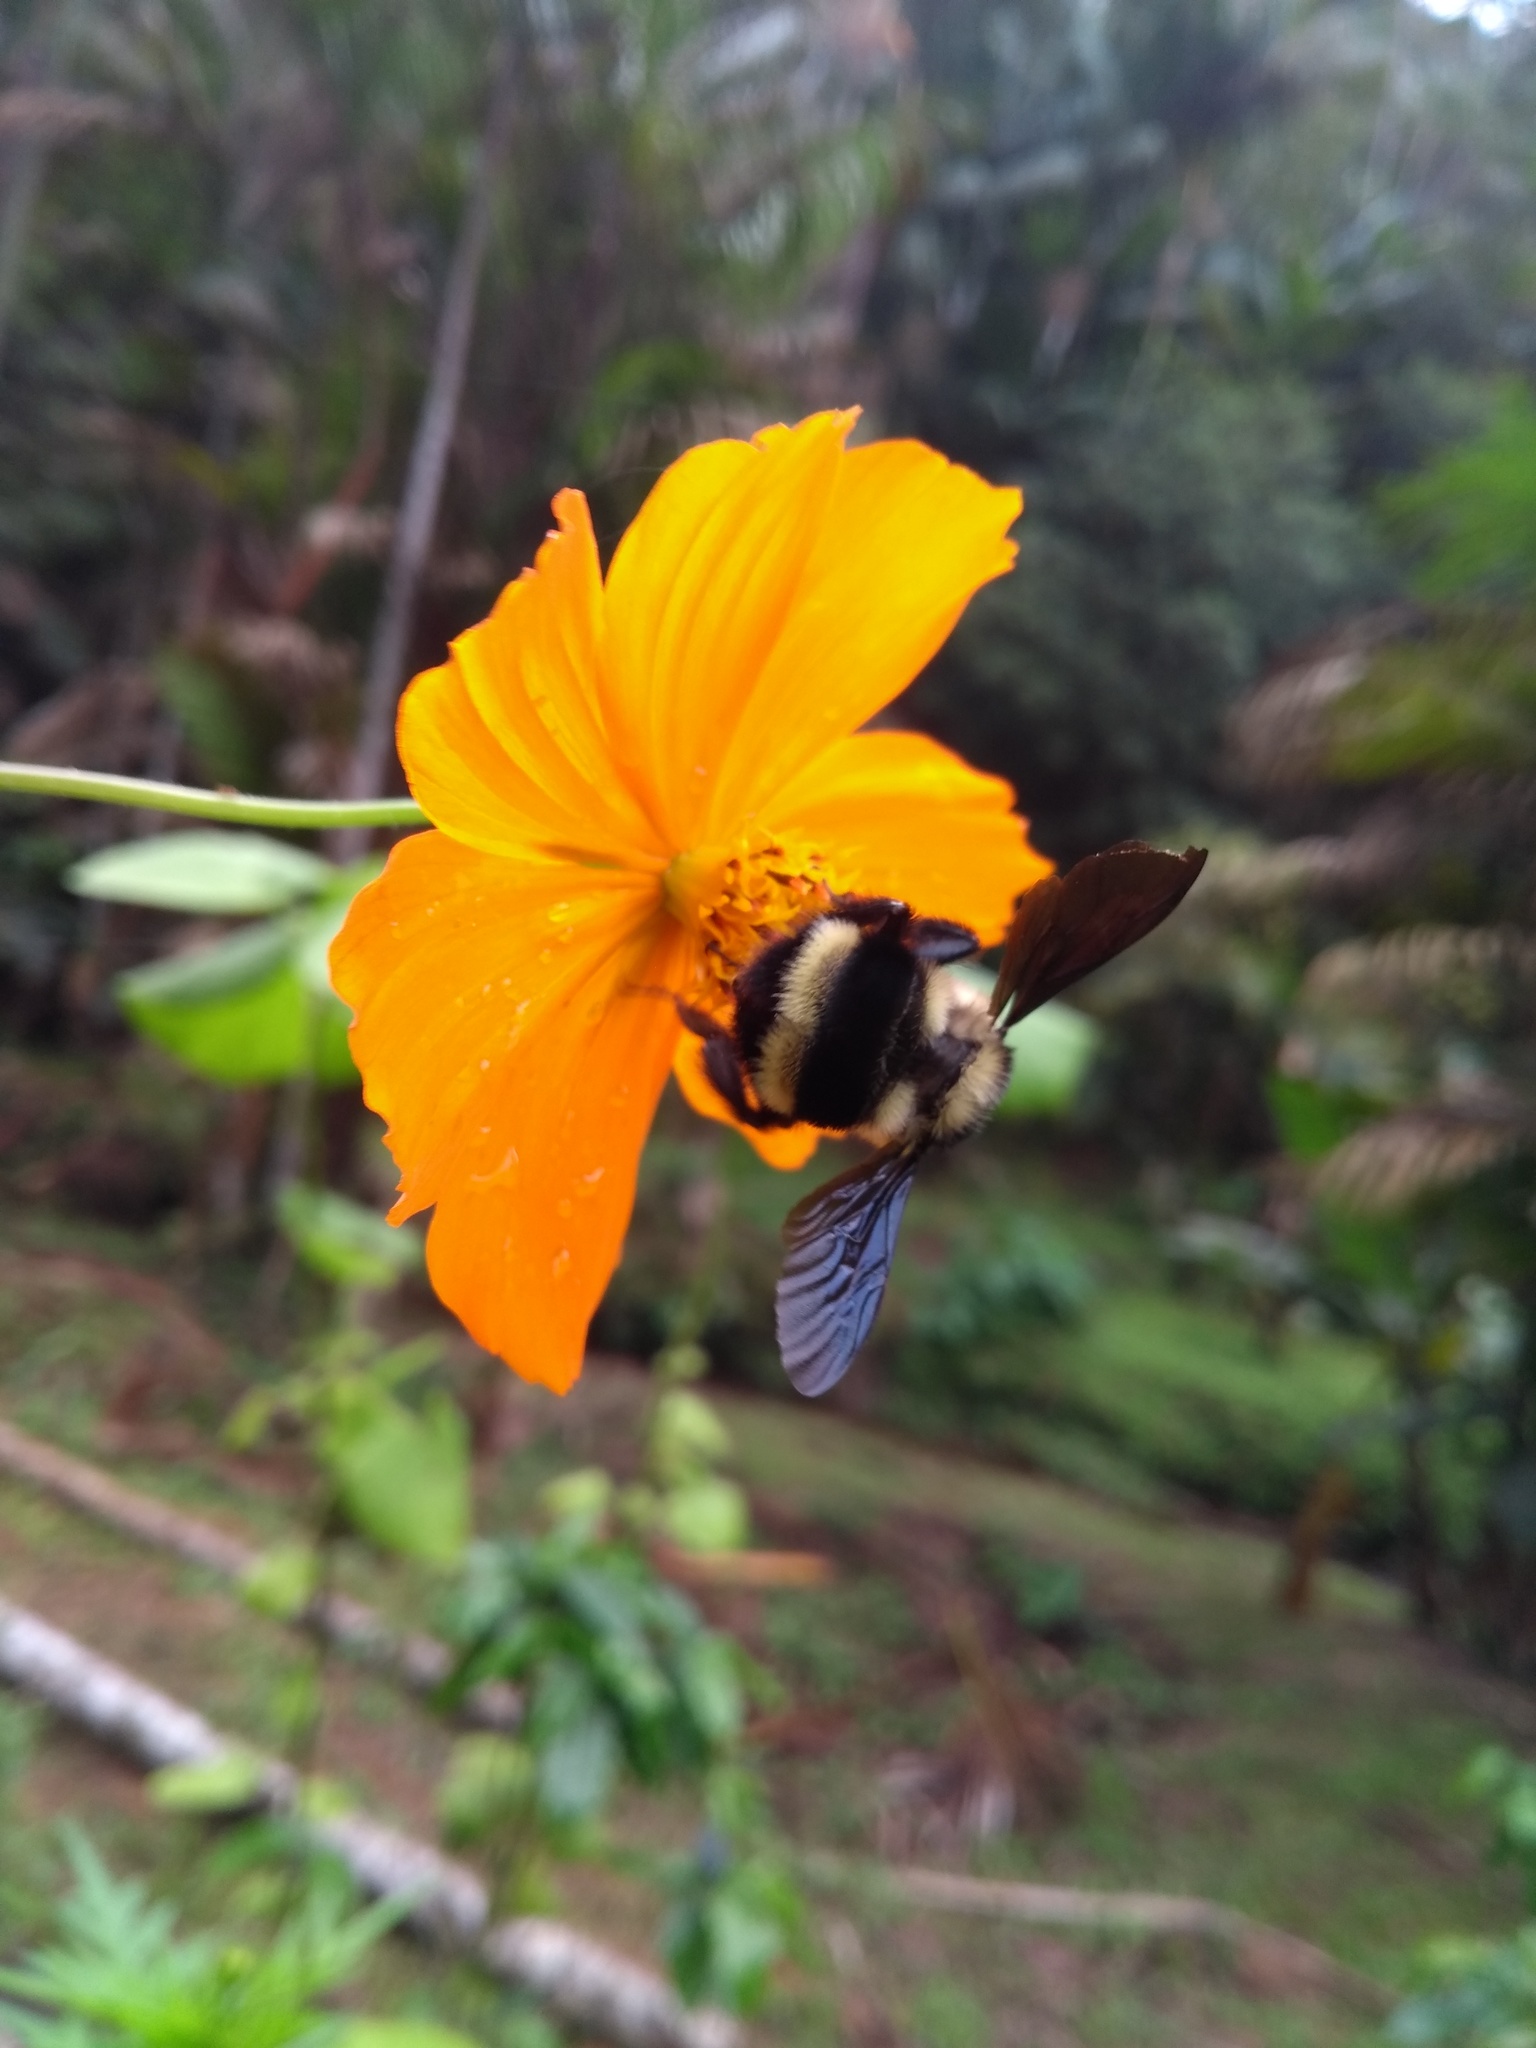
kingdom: Animalia
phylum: Arthropoda
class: Insecta
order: Hymenoptera
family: Apidae
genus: Bombus
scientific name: Bombus brasiliensis
